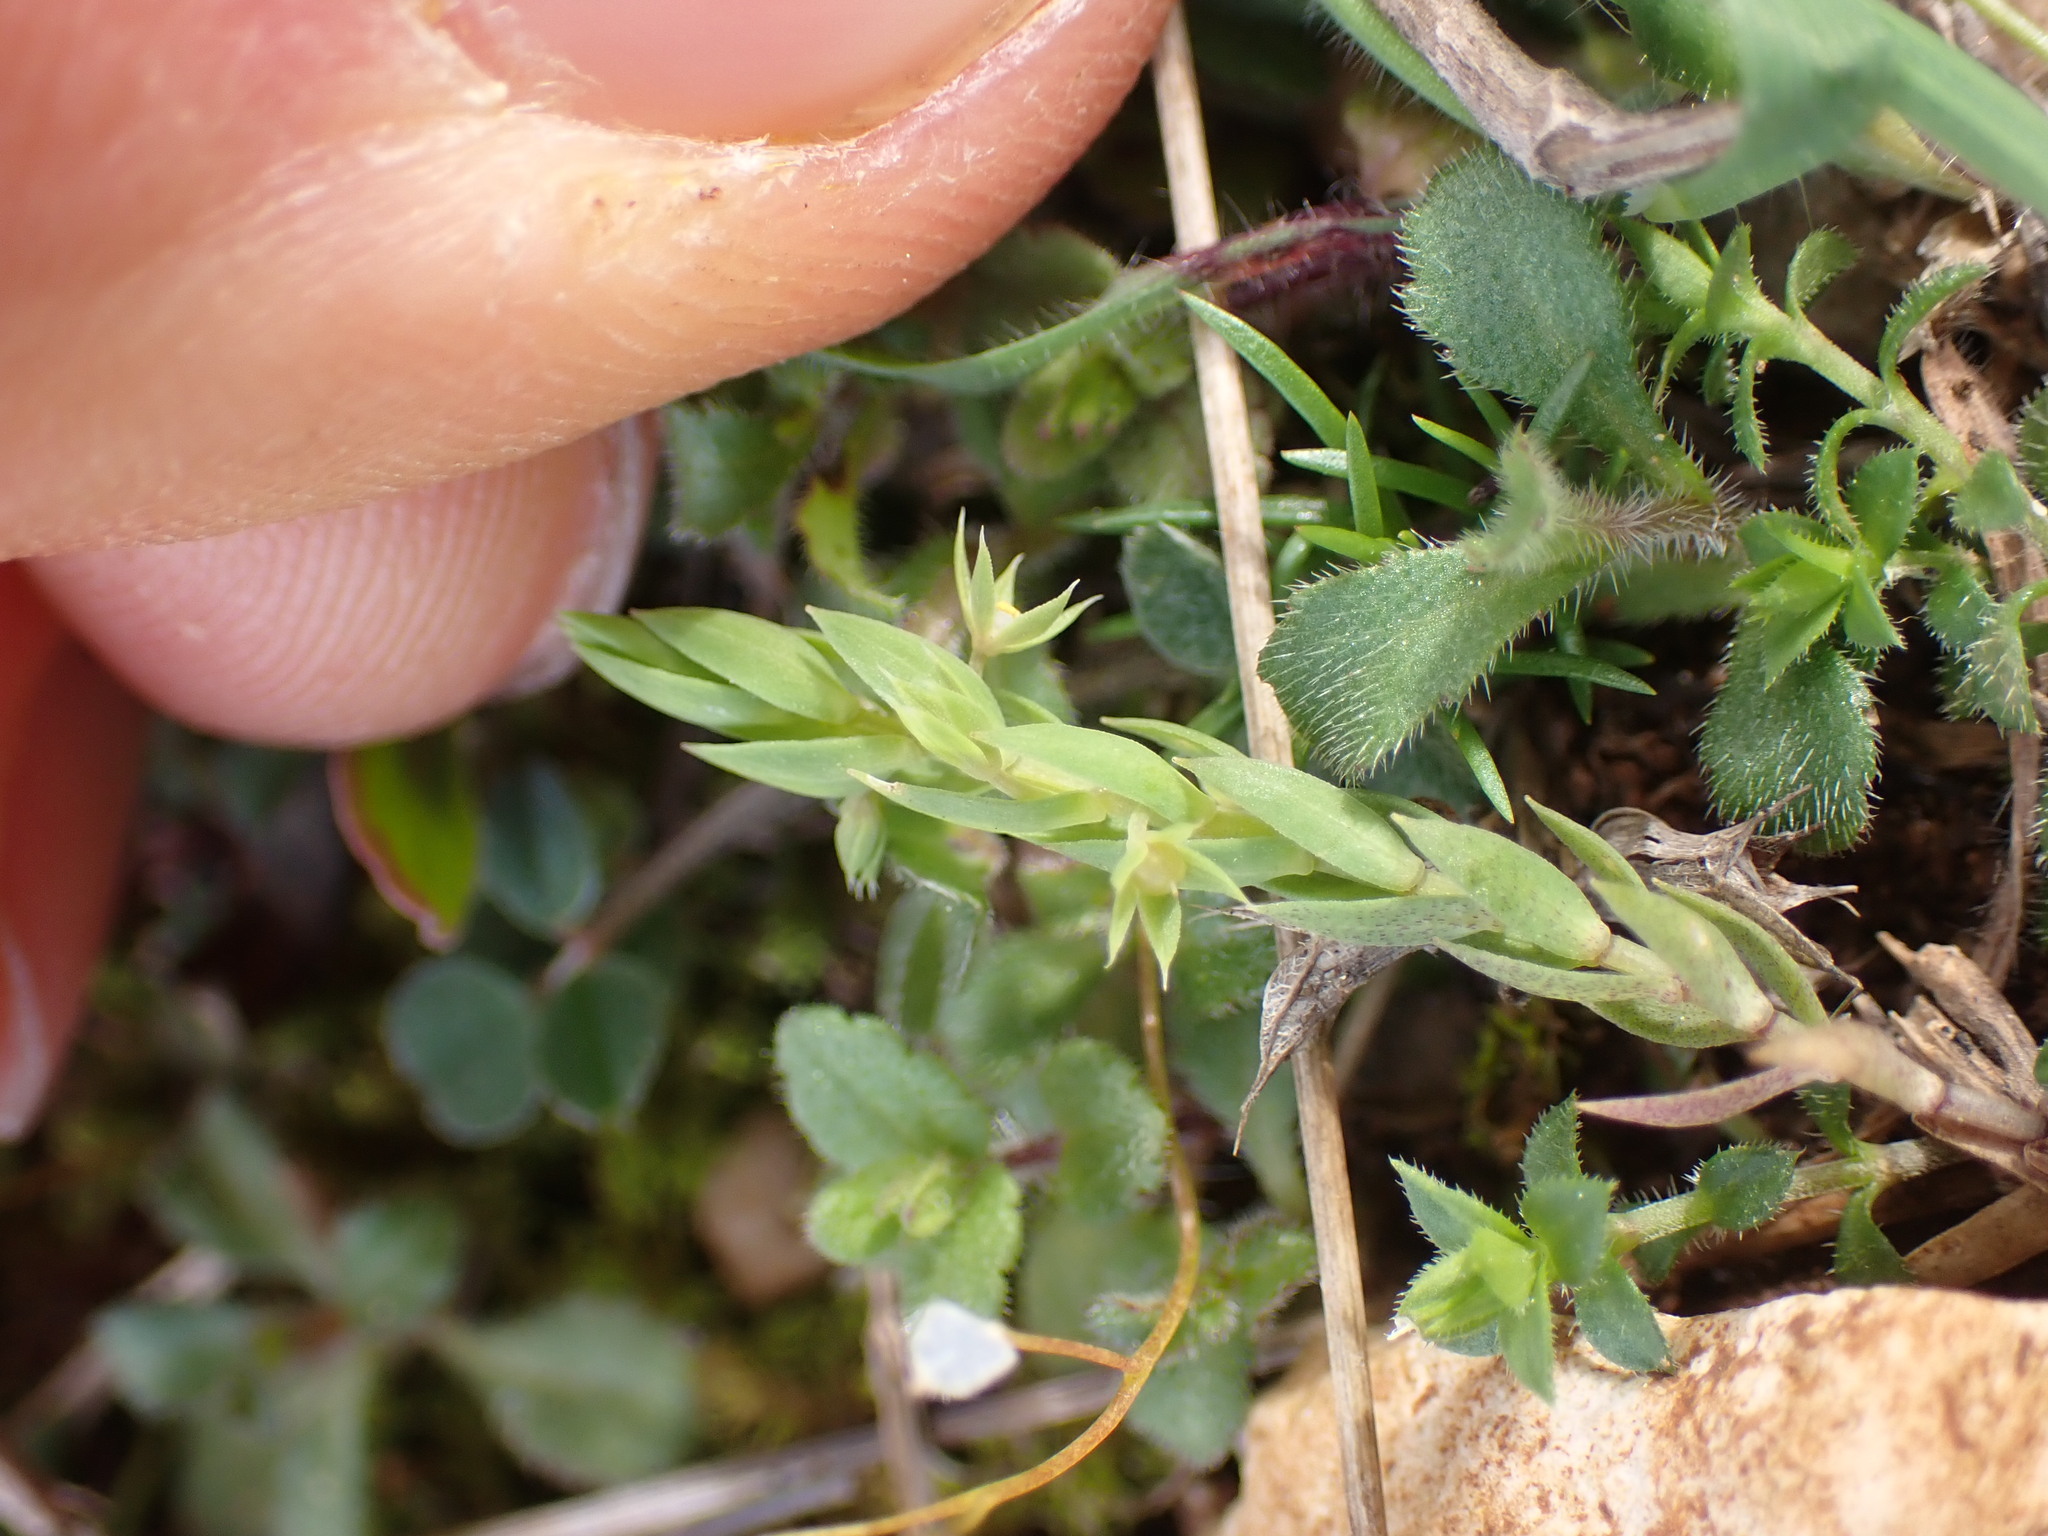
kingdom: Plantae
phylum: Tracheophyta
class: Magnoliopsida
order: Ericales
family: Primulaceae
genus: Lysimachia
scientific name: Lysimachia linum-stellatum
